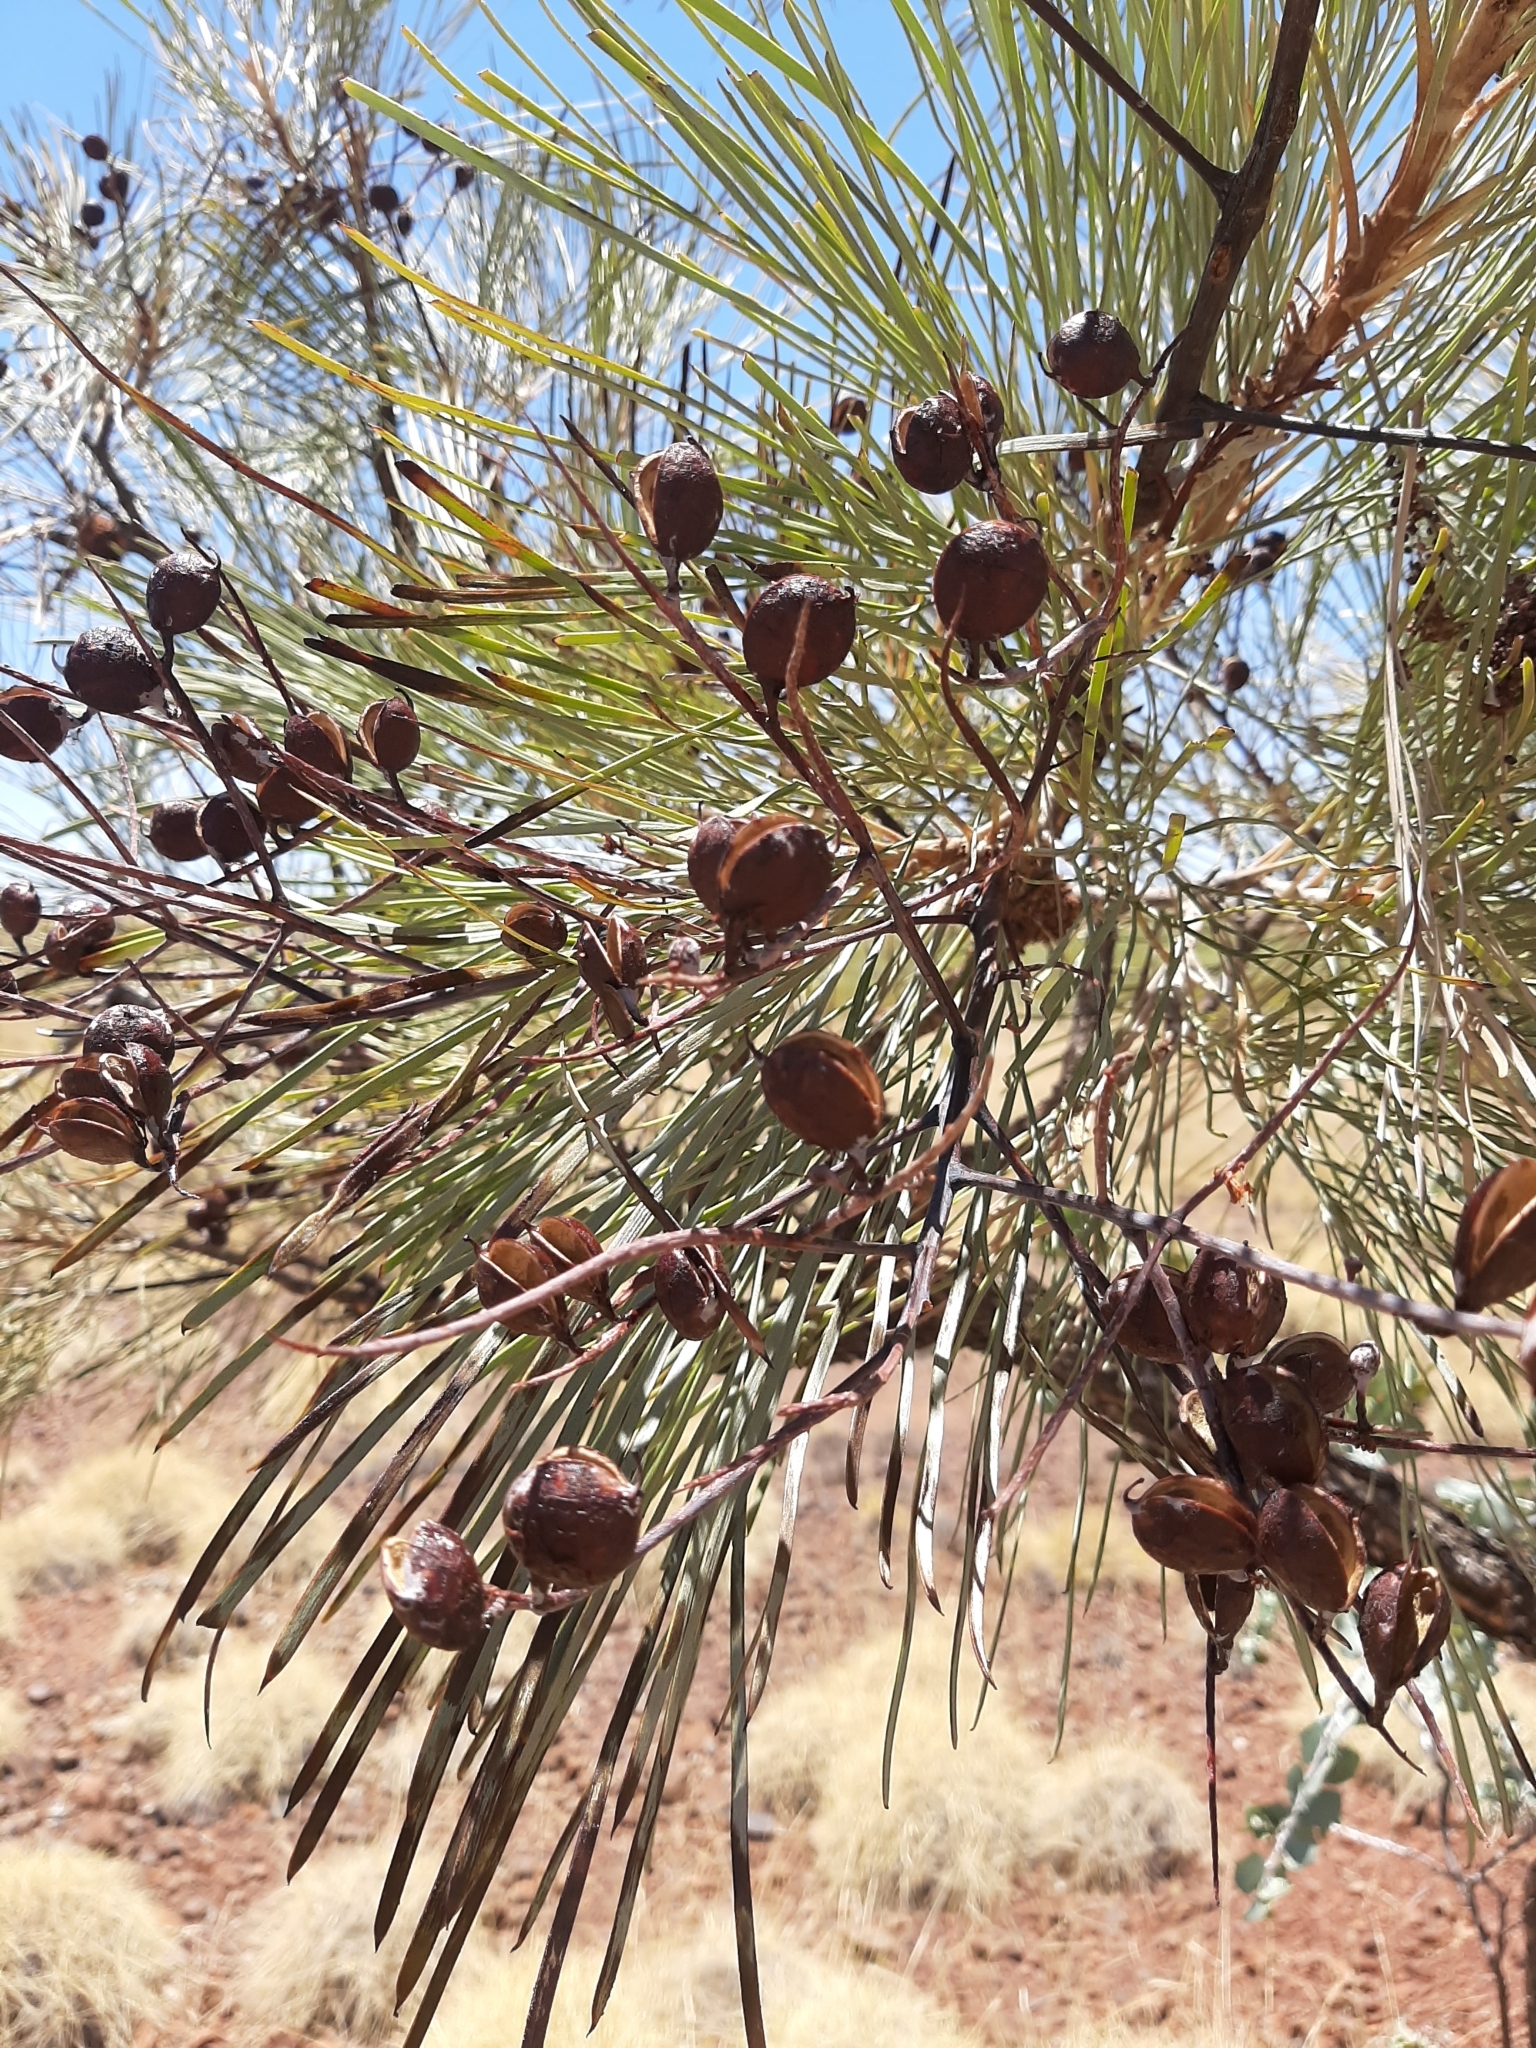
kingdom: Plantae
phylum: Tracheophyta
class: Magnoliopsida
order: Proteales
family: Proteaceae
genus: Grevillea
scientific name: Grevillea pyramidalis
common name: Caustictree
